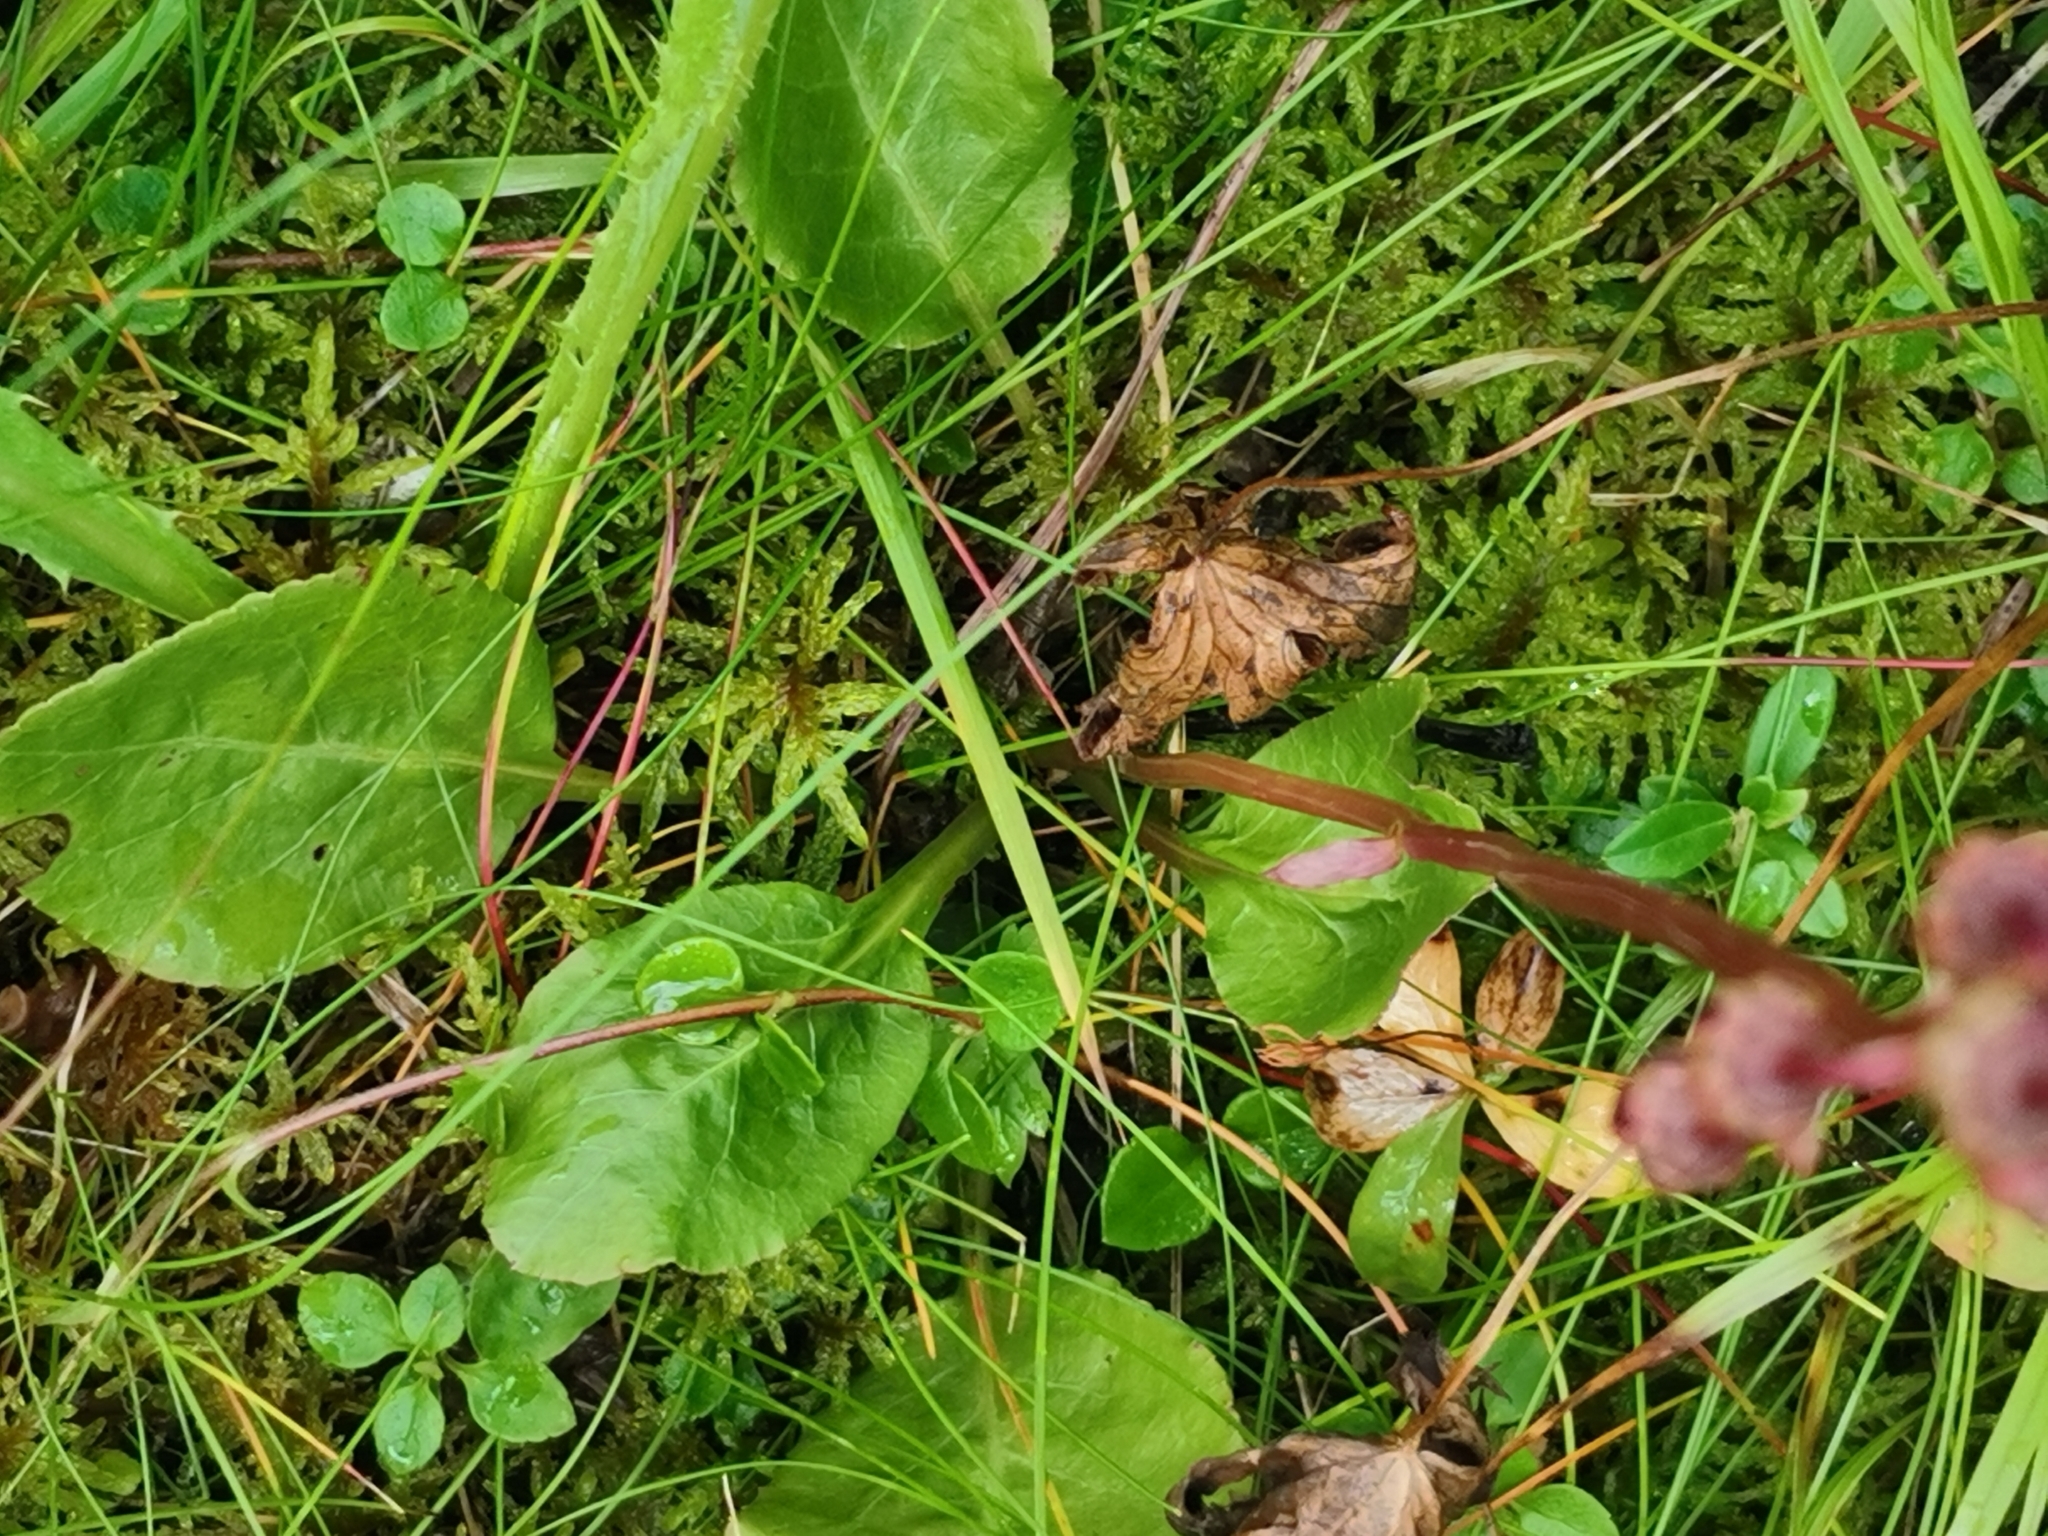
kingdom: Plantae
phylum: Tracheophyta
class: Magnoliopsida
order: Ericales
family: Ericaceae
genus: Pyrola
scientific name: Pyrola minor
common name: Common wintergreen
